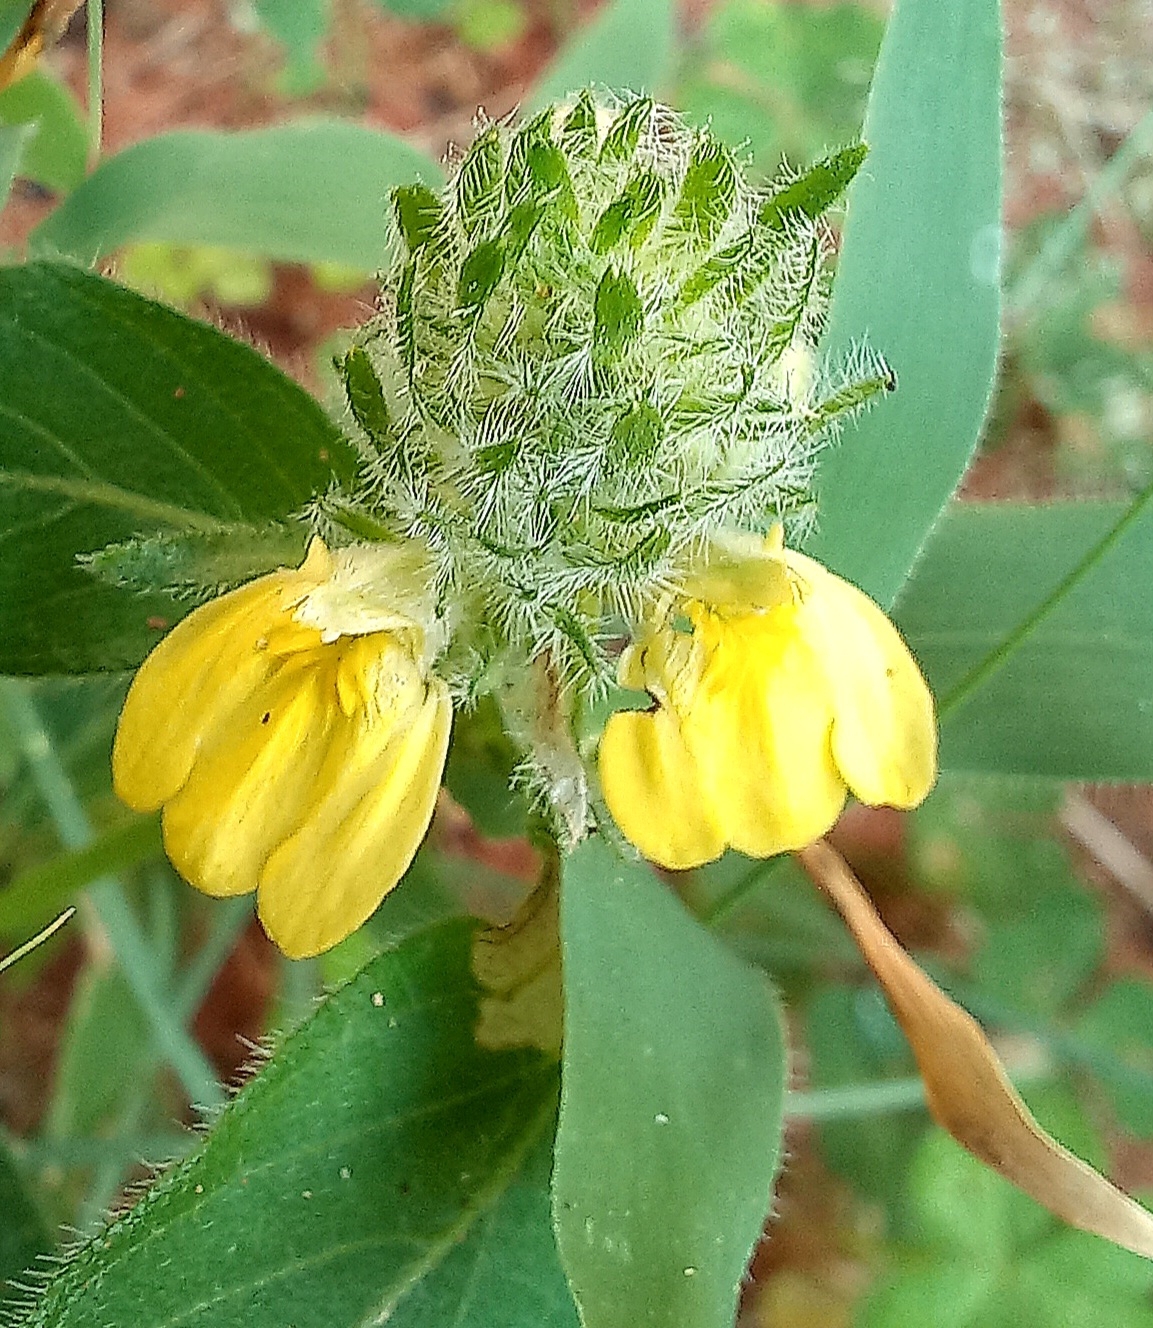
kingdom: Plantae
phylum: Tracheophyta
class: Magnoliopsida
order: Lamiales
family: Acanthaceae
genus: Justicia
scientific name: Justicia flava
